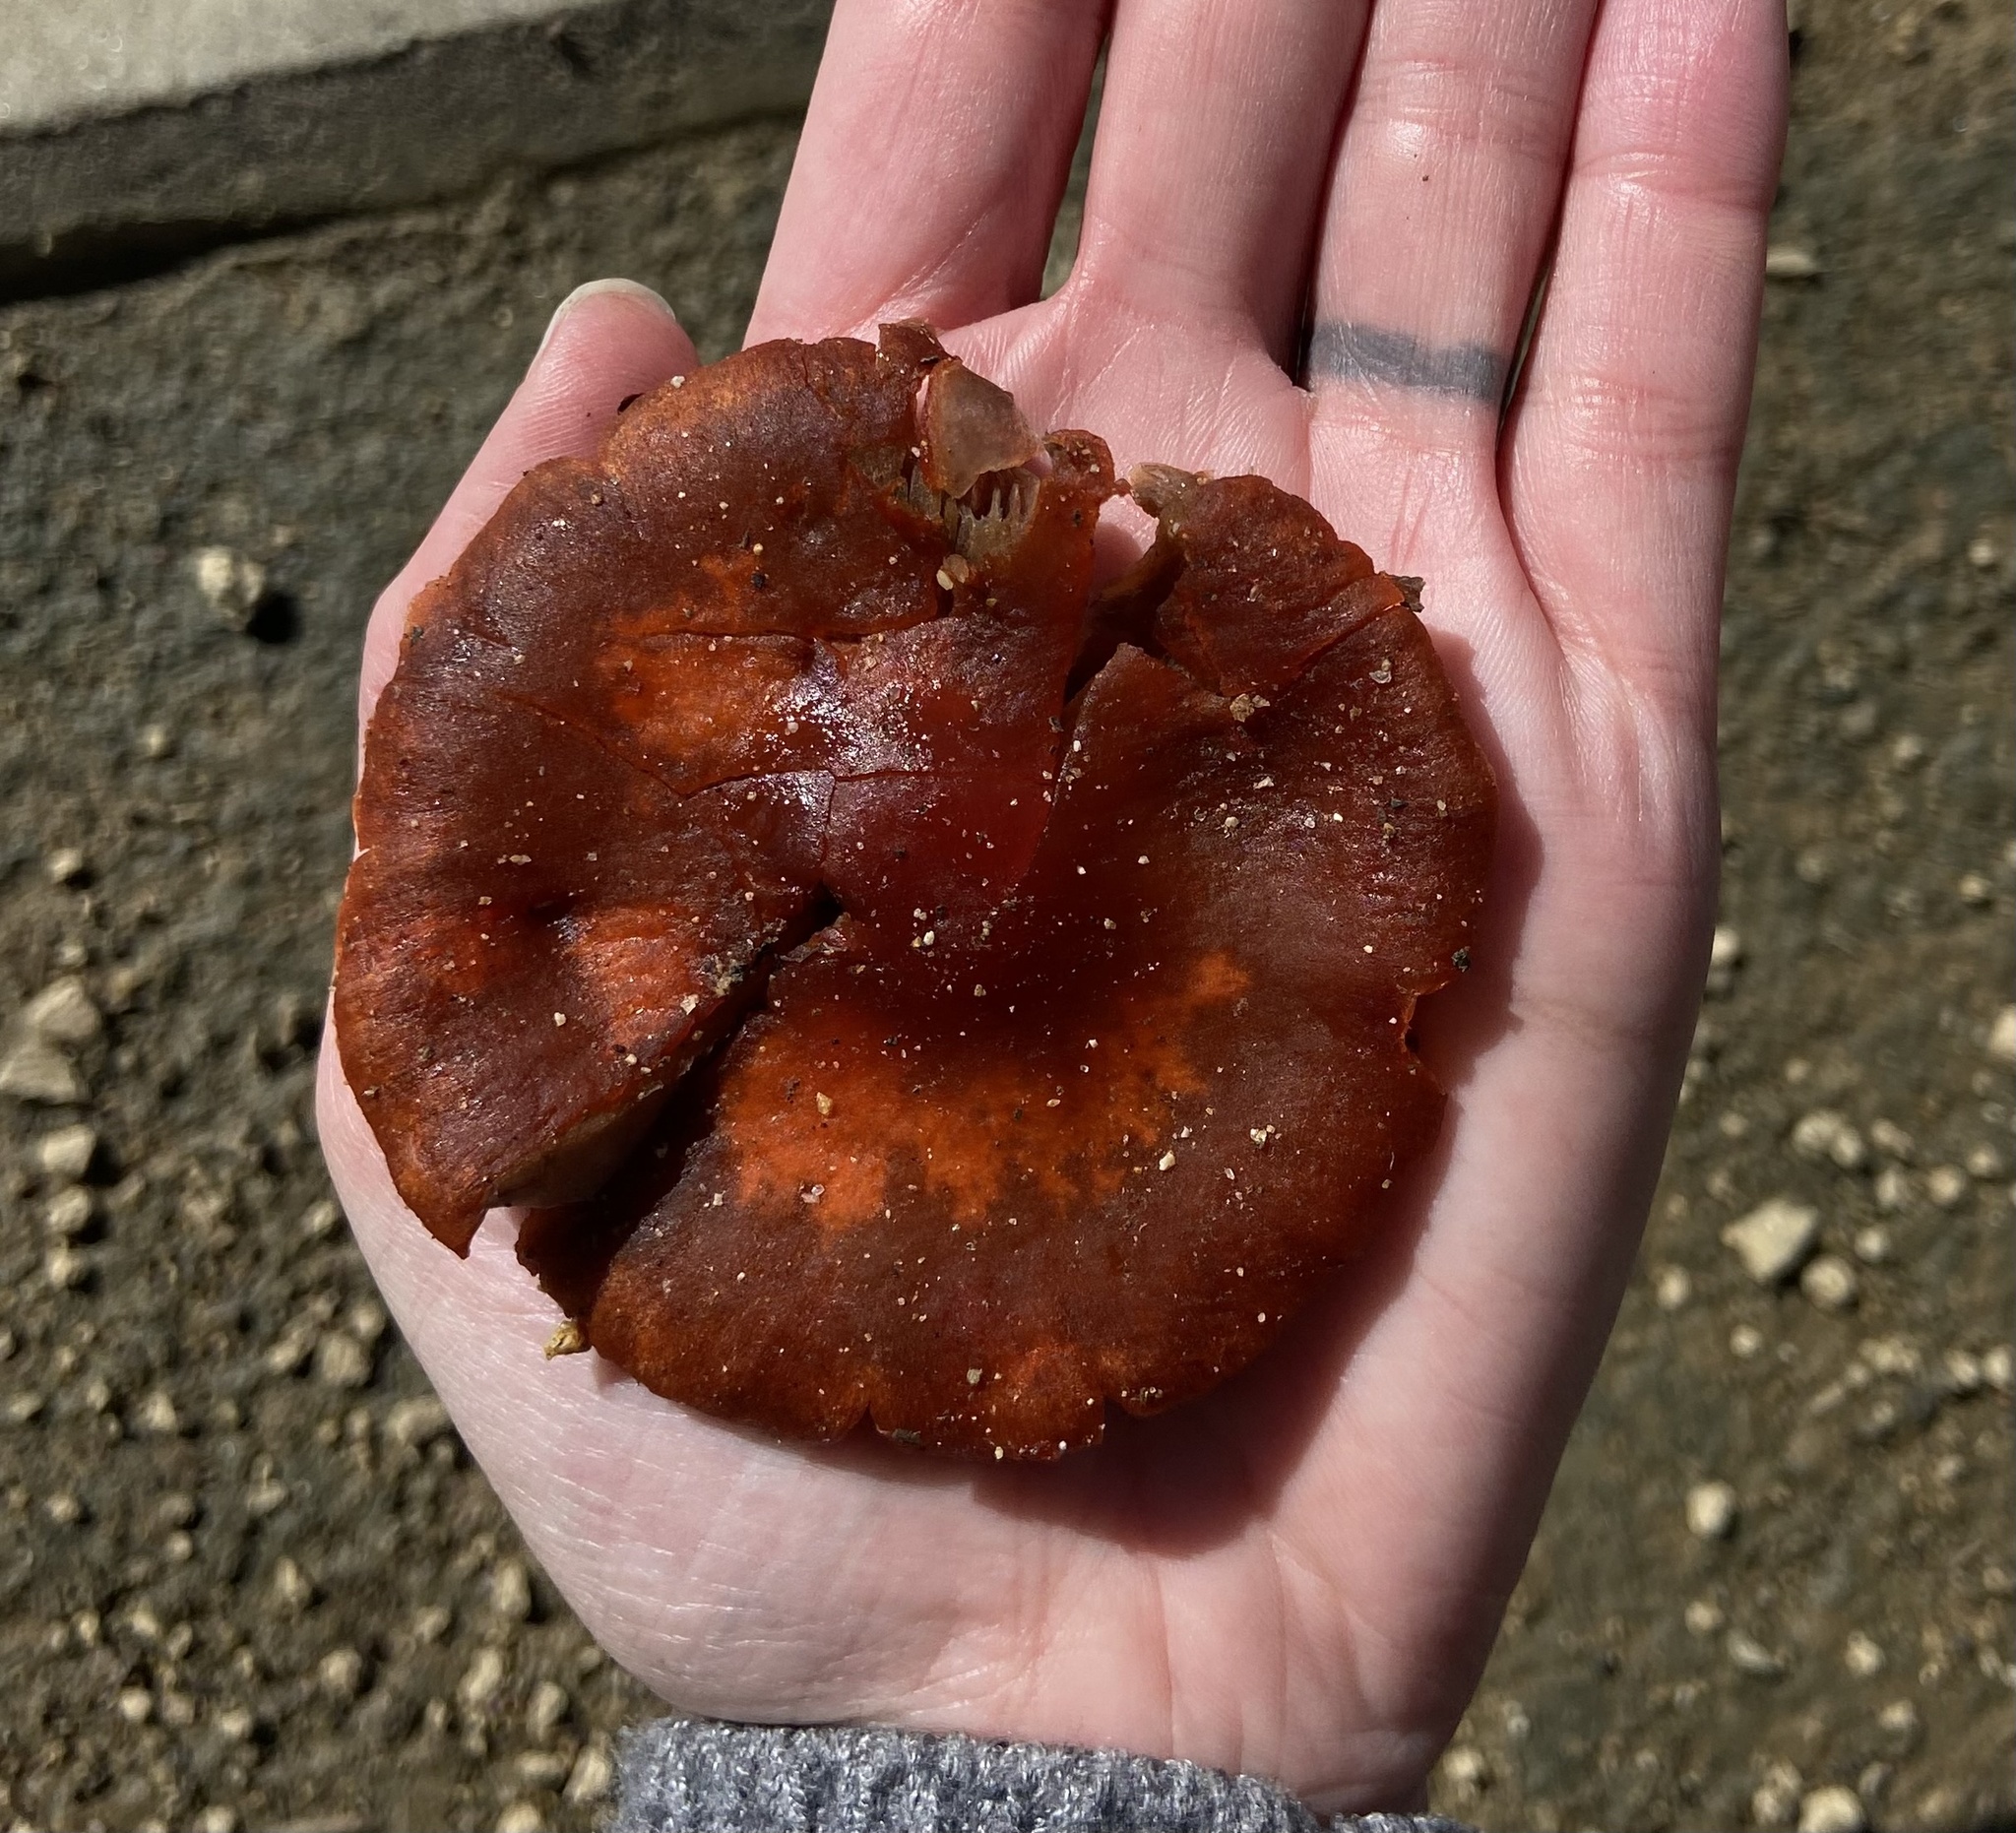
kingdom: Fungi
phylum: Basidiomycota
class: Agaricomycetes
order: Agaricales
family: Strophariaceae
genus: Leratiomyces
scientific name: Leratiomyces ceres
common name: Redlead roundhead
